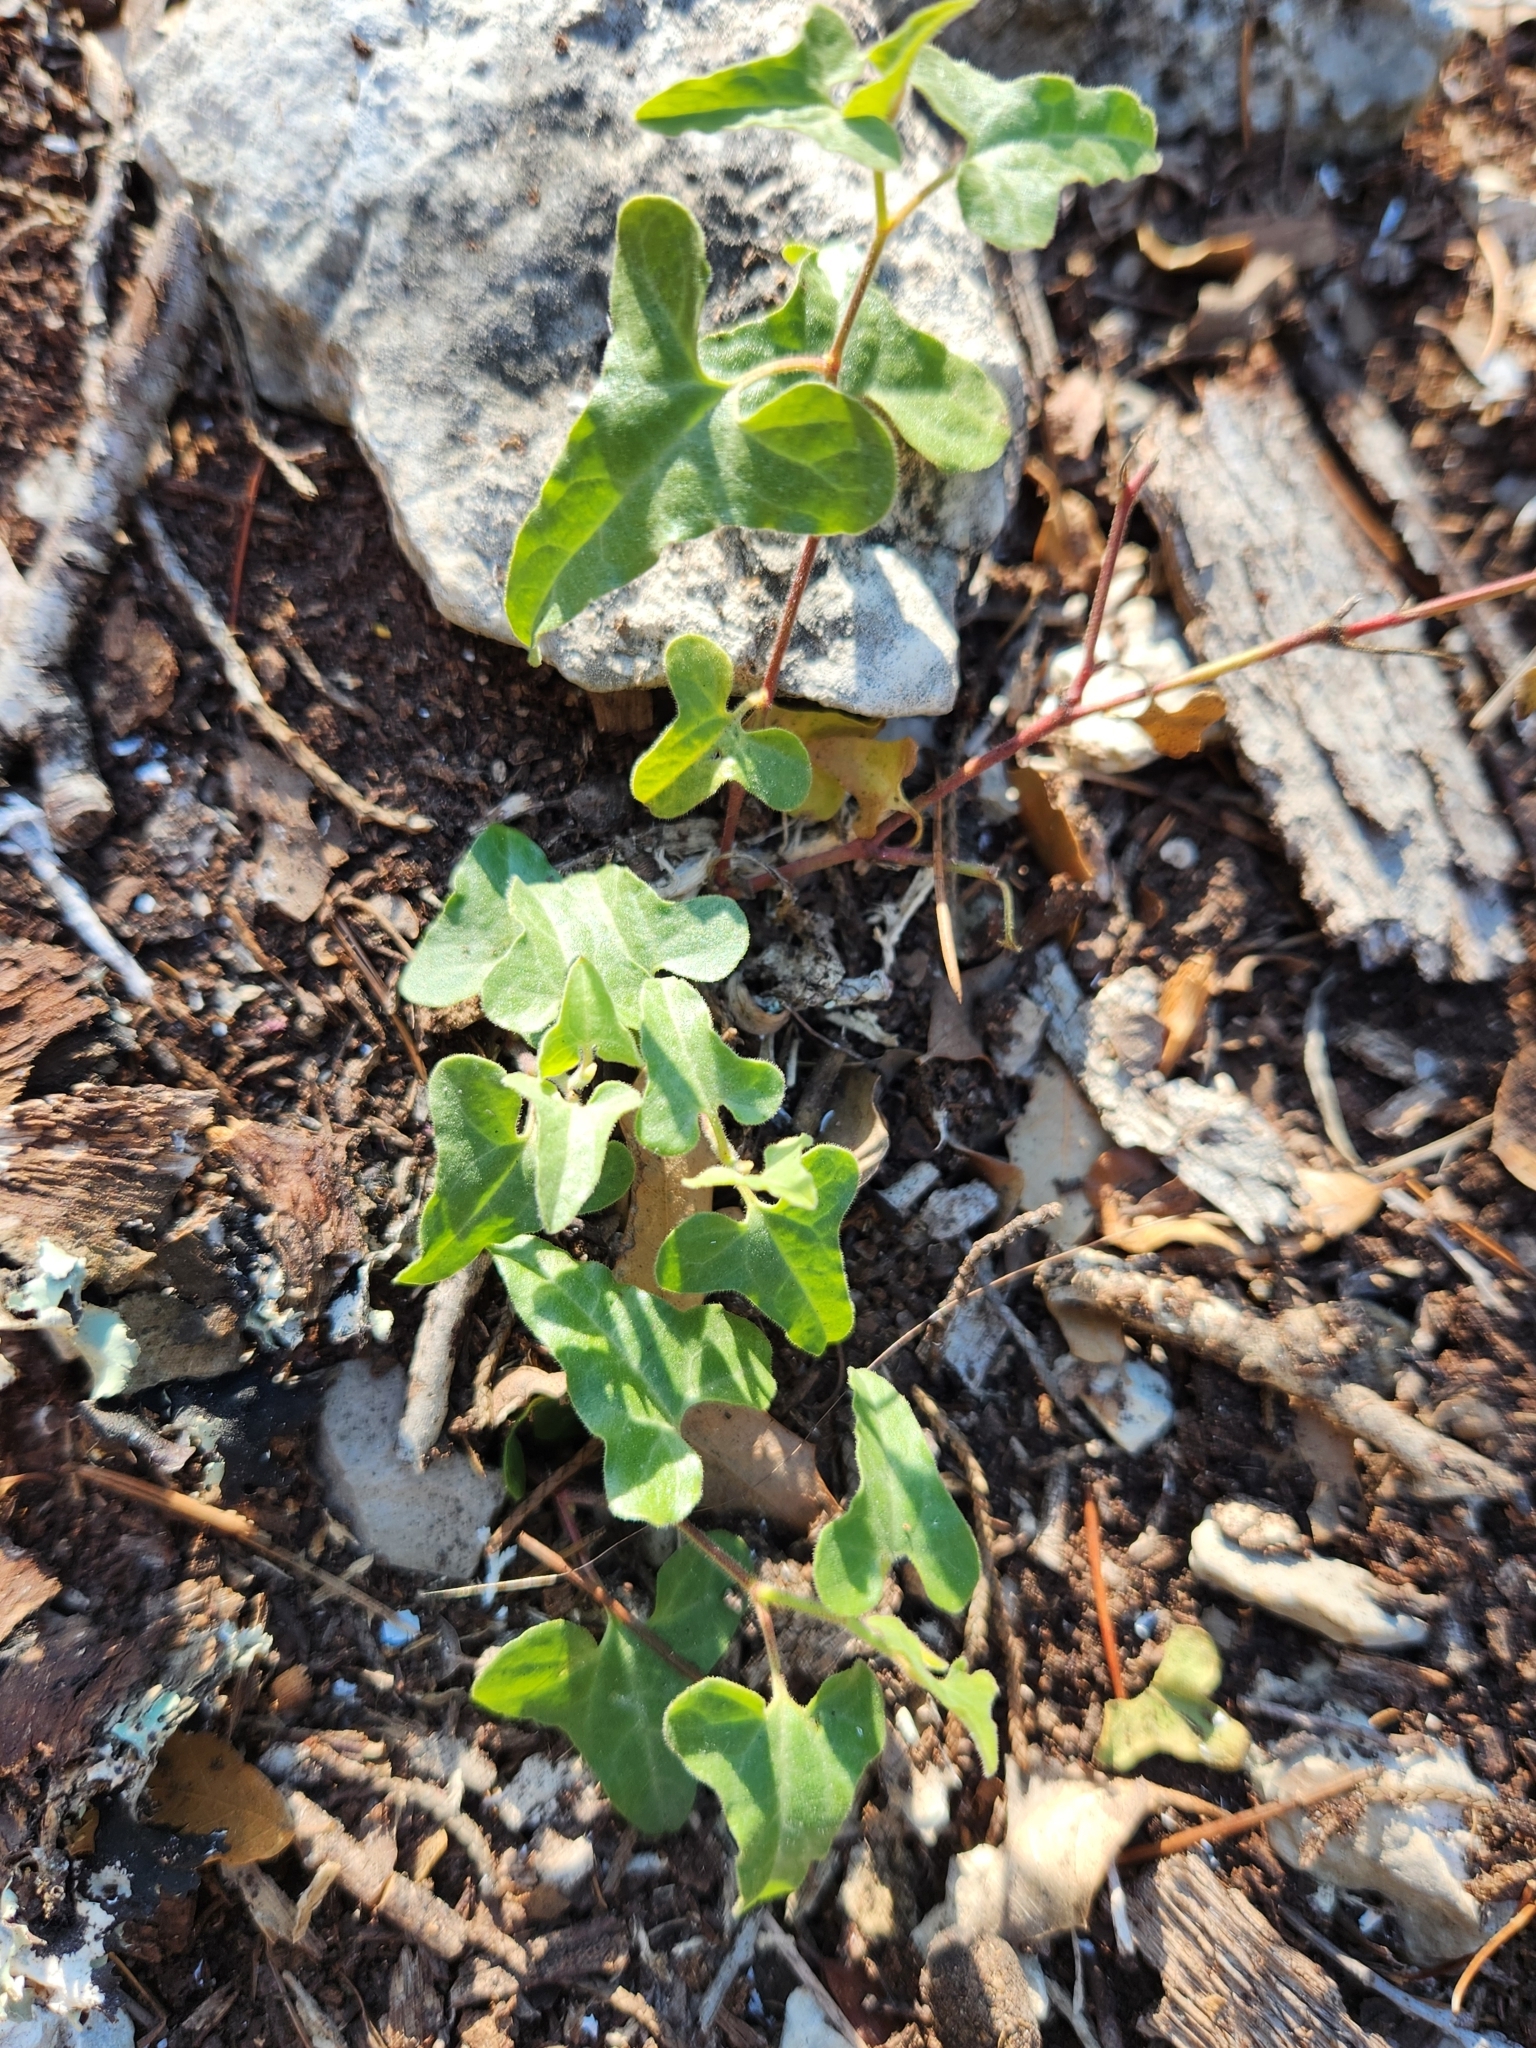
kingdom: Plantae
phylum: Tracheophyta
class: Magnoliopsida
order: Piperales
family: Aristolochiaceae
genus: Aristolochia
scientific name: Aristolochia coryi
